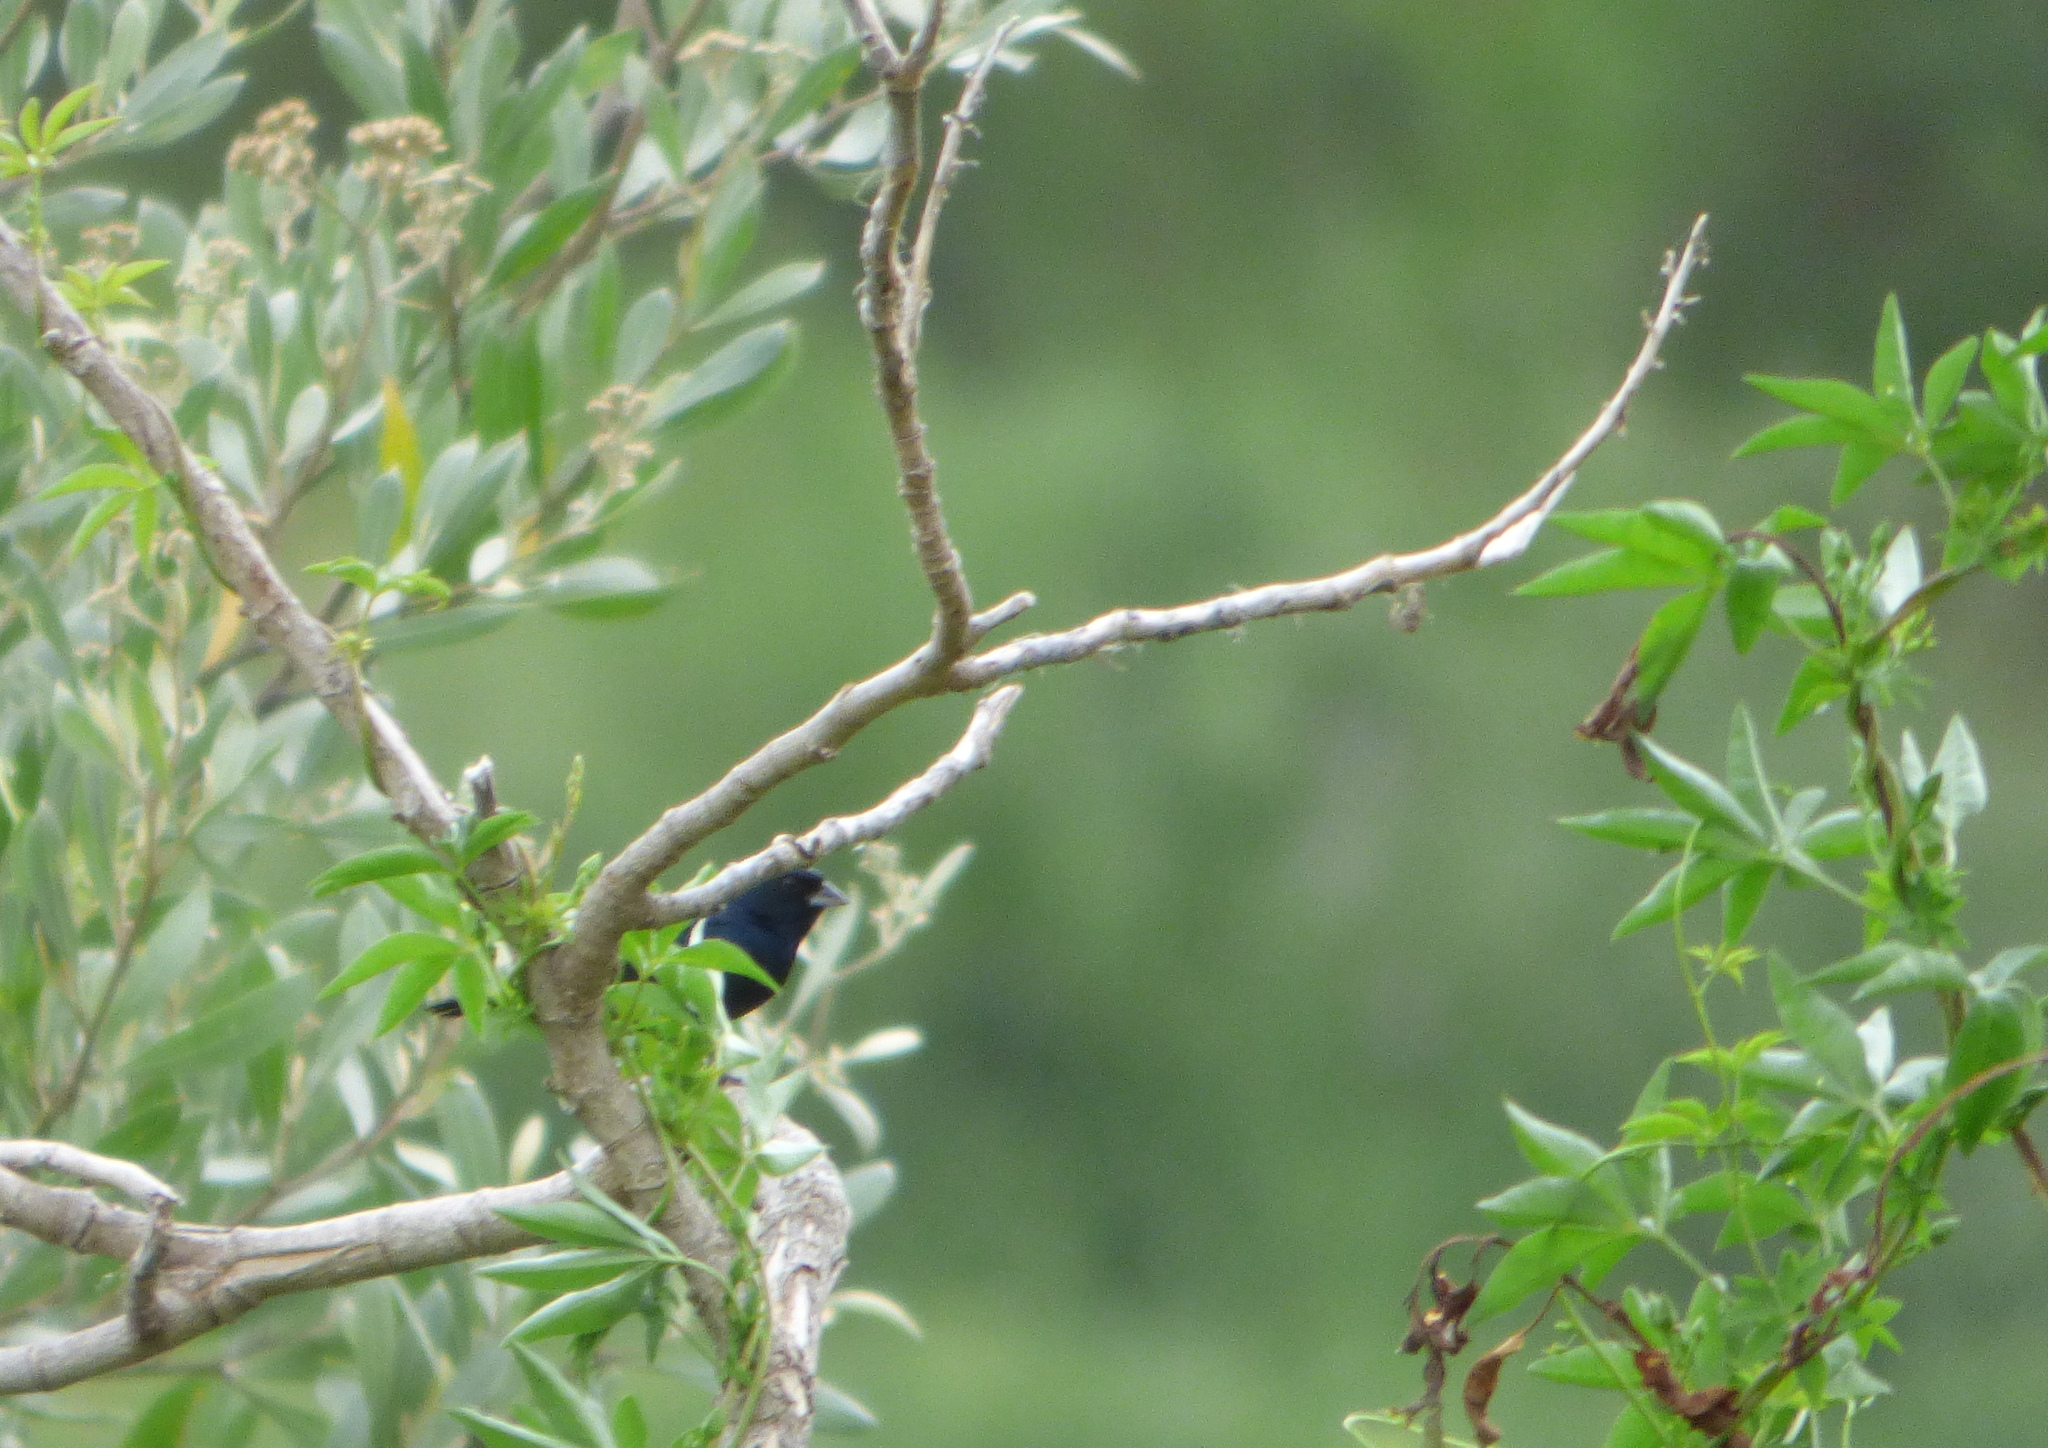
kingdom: Animalia
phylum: Chordata
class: Aves
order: Passeriformes
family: Thraupidae
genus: Volatinia
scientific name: Volatinia jacarina
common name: Blue-black grassquit
